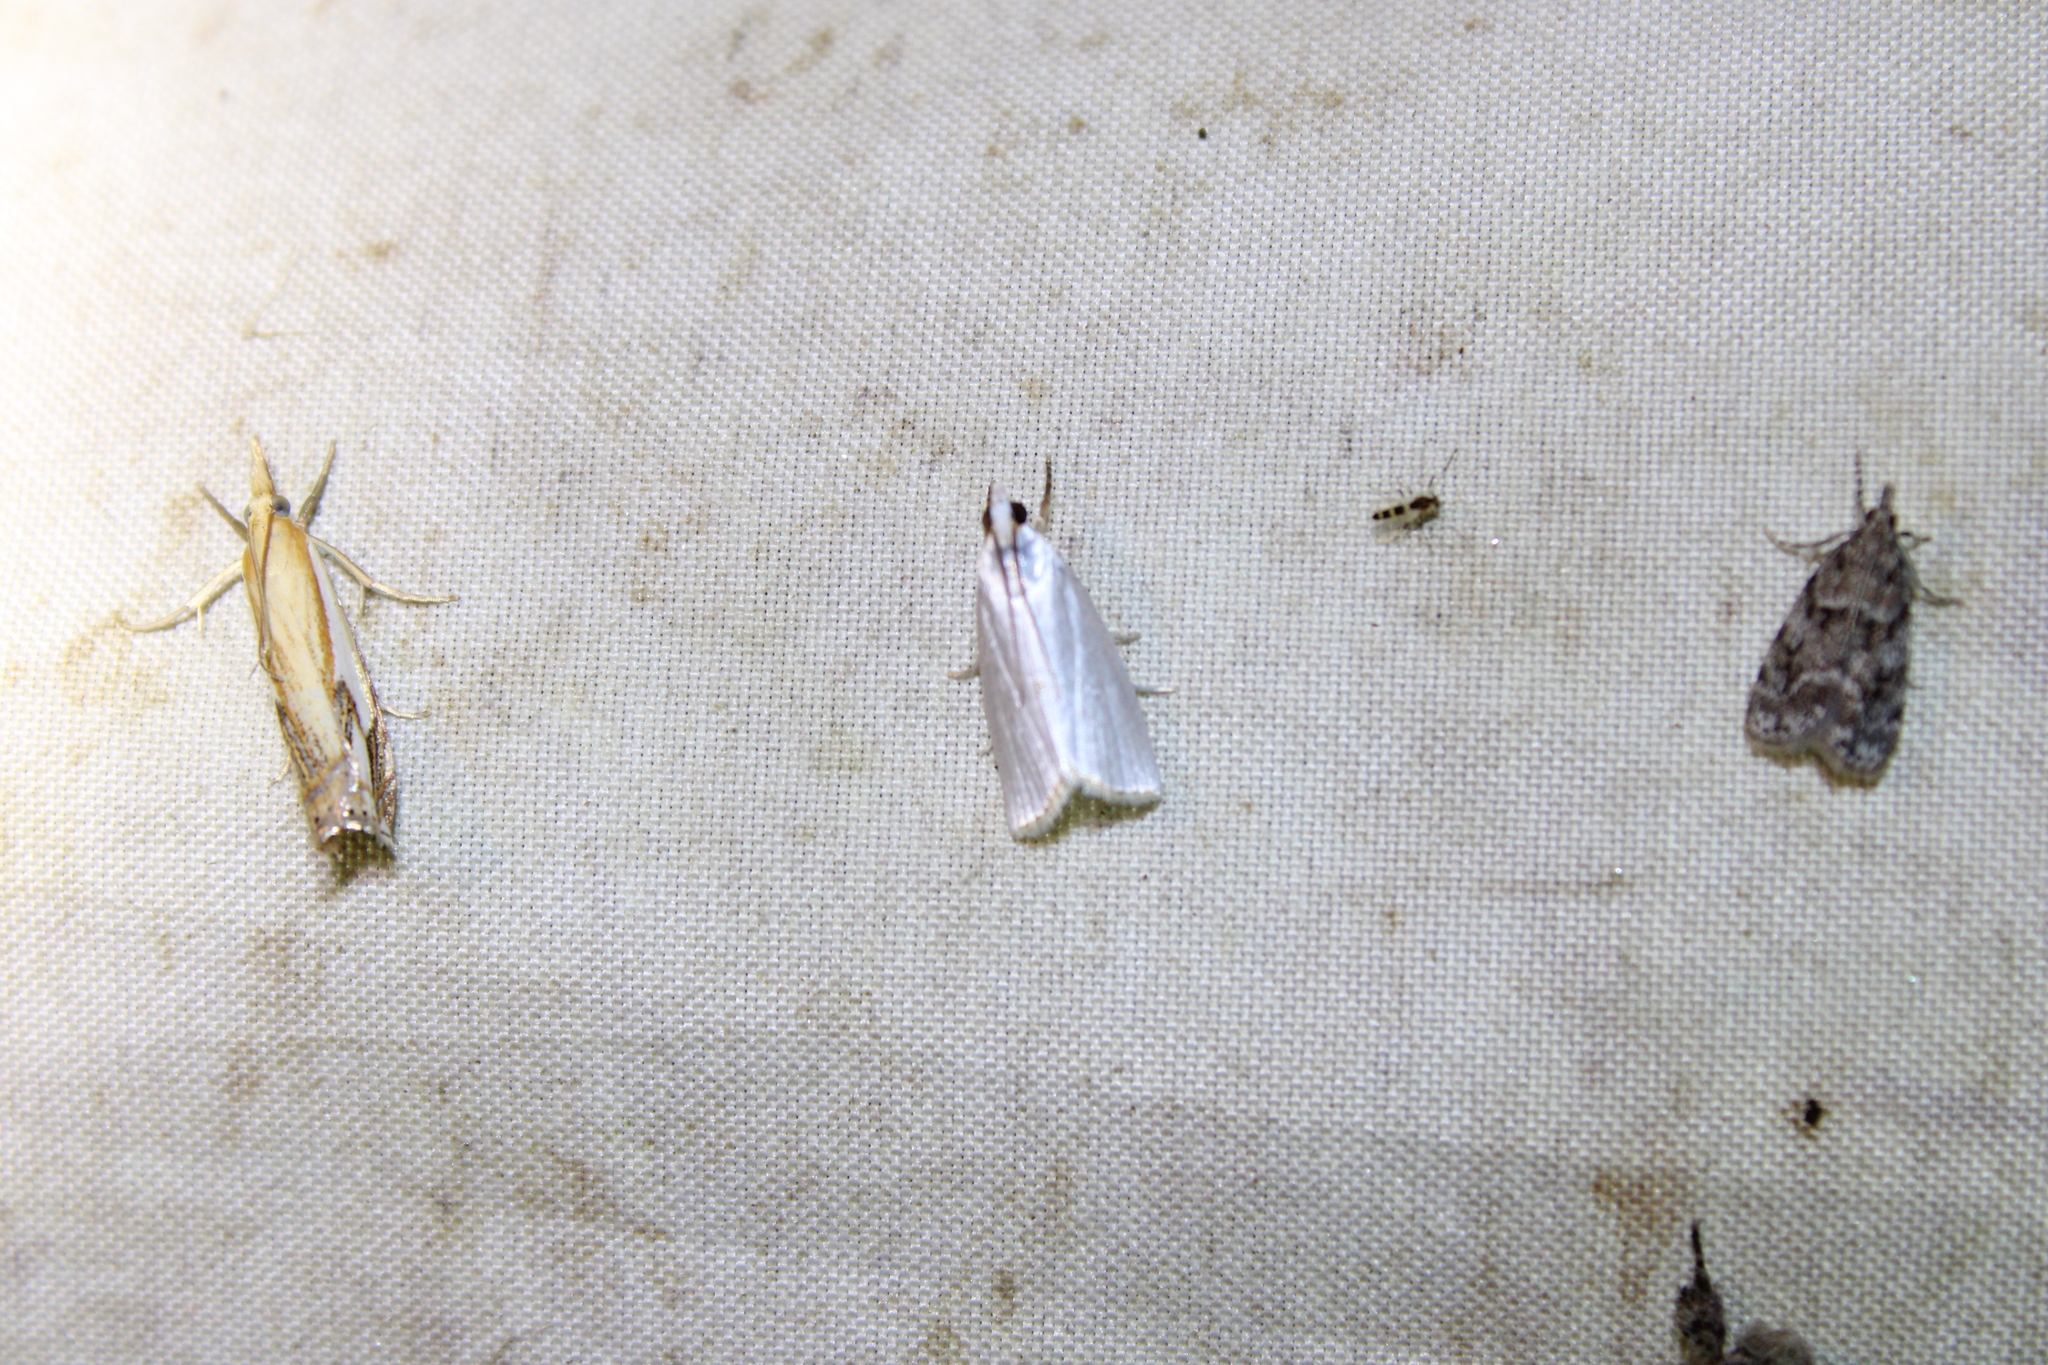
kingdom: Animalia
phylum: Arthropoda
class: Insecta
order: Lepidoptera
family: Crambidae
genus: Argyria
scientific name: Argyria nivalis
